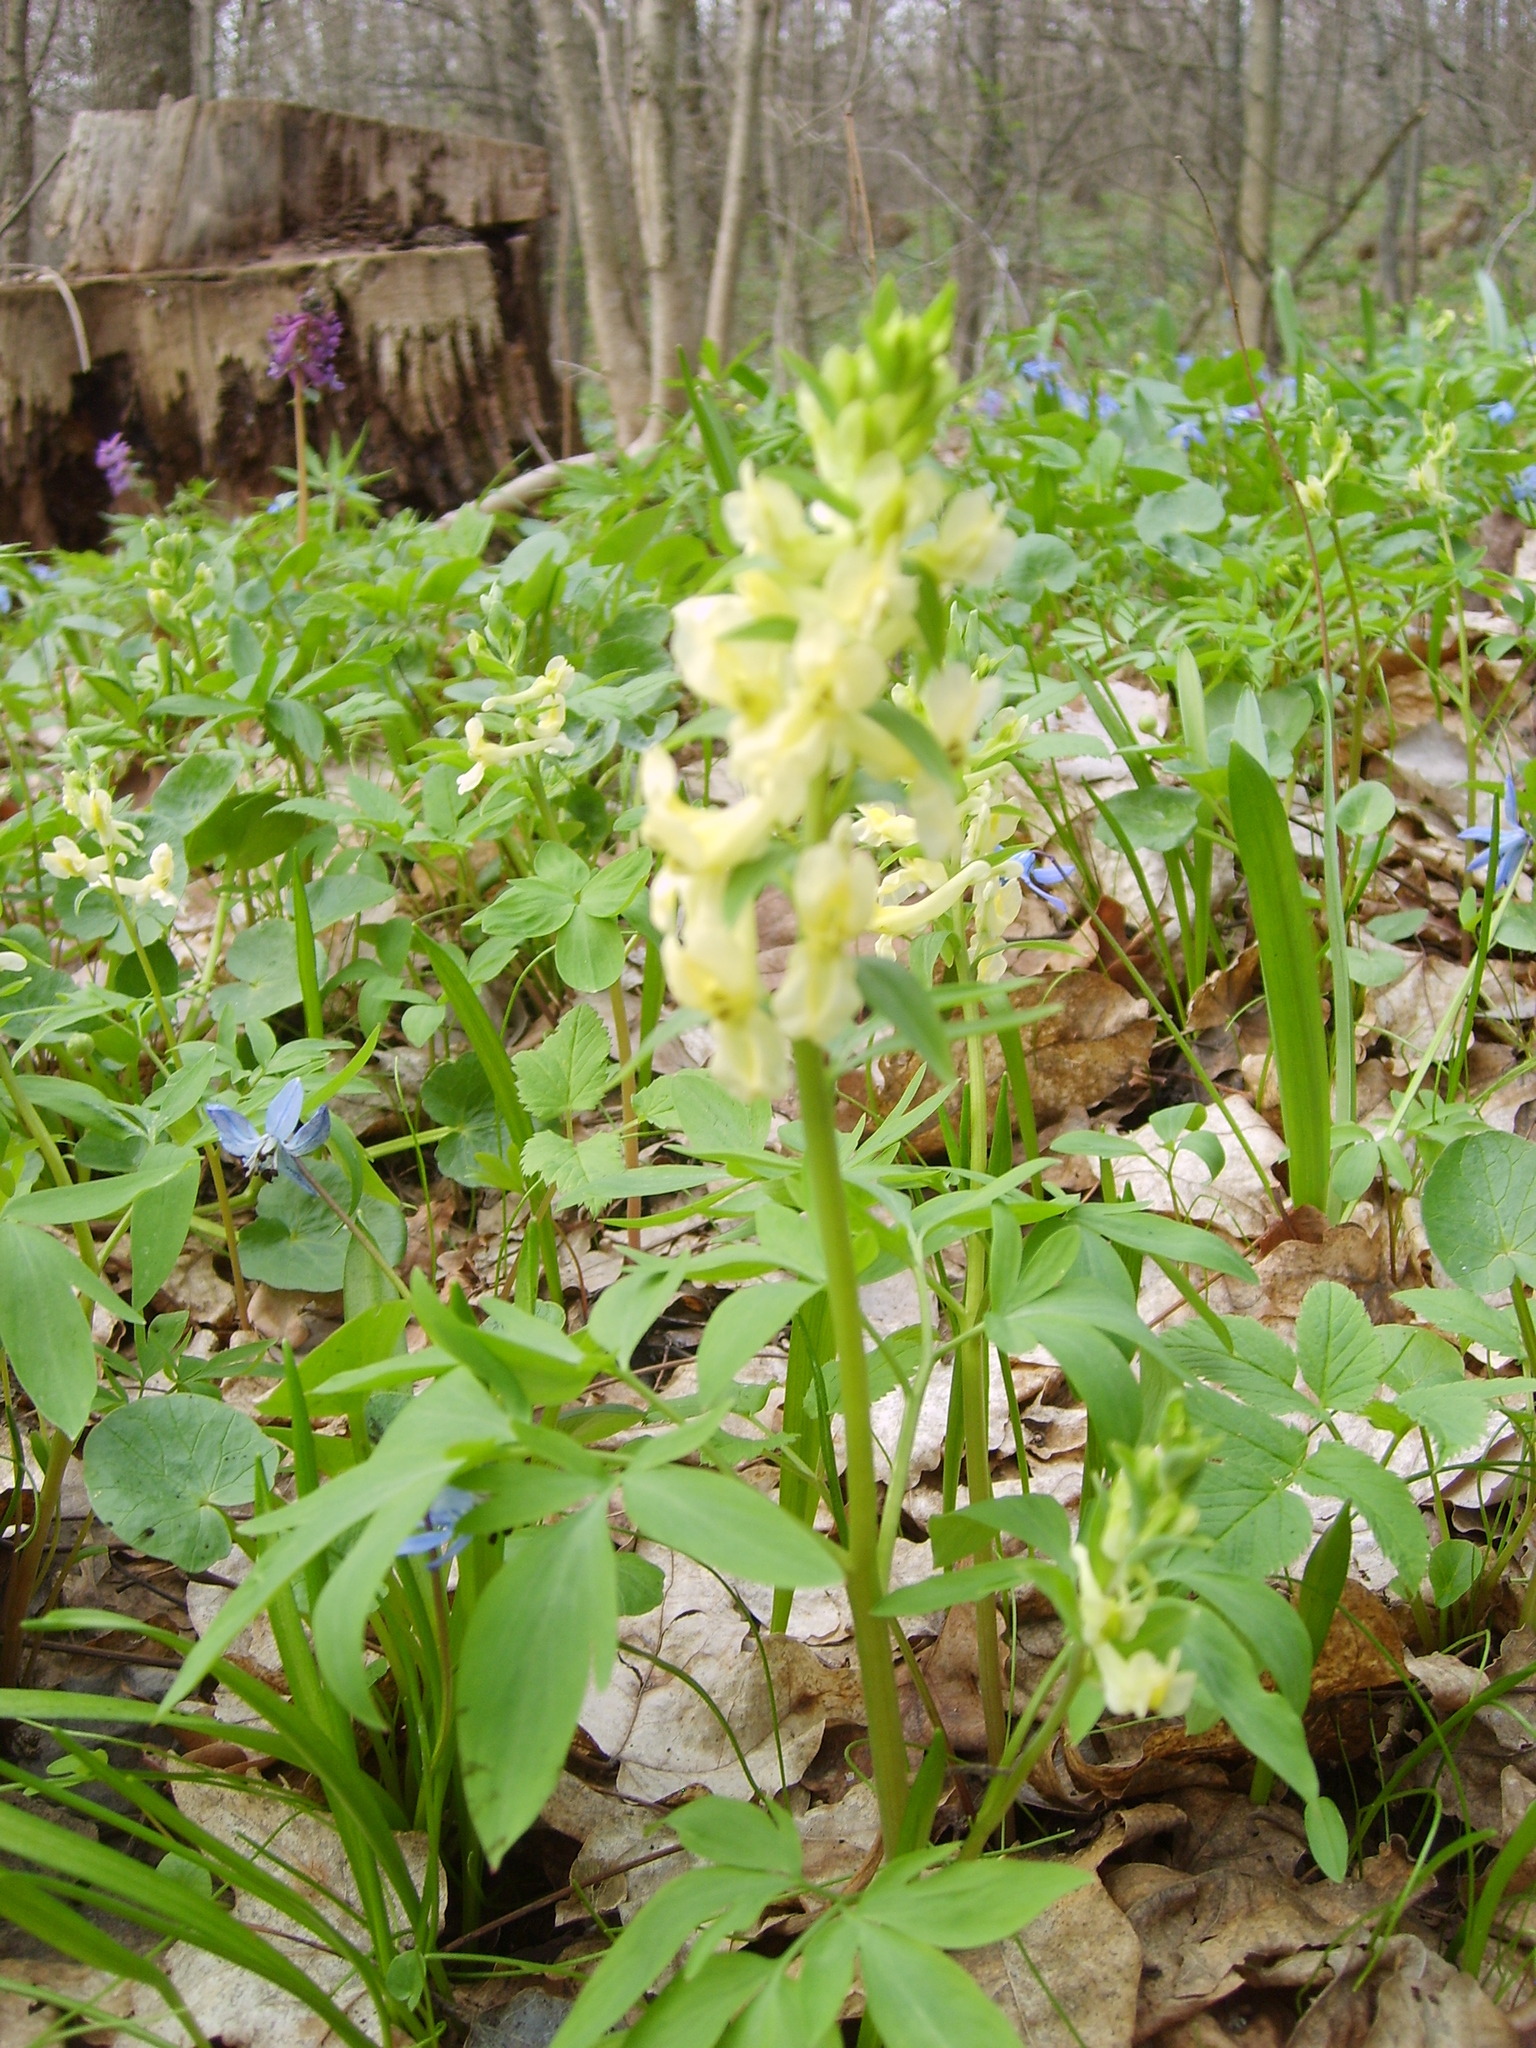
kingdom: Plantae
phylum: Tracheophyta
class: Magnoliopsida
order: Ranunculales
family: Papaveraceae
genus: Corydalis
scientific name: Corydalis cava
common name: Hollowroot
